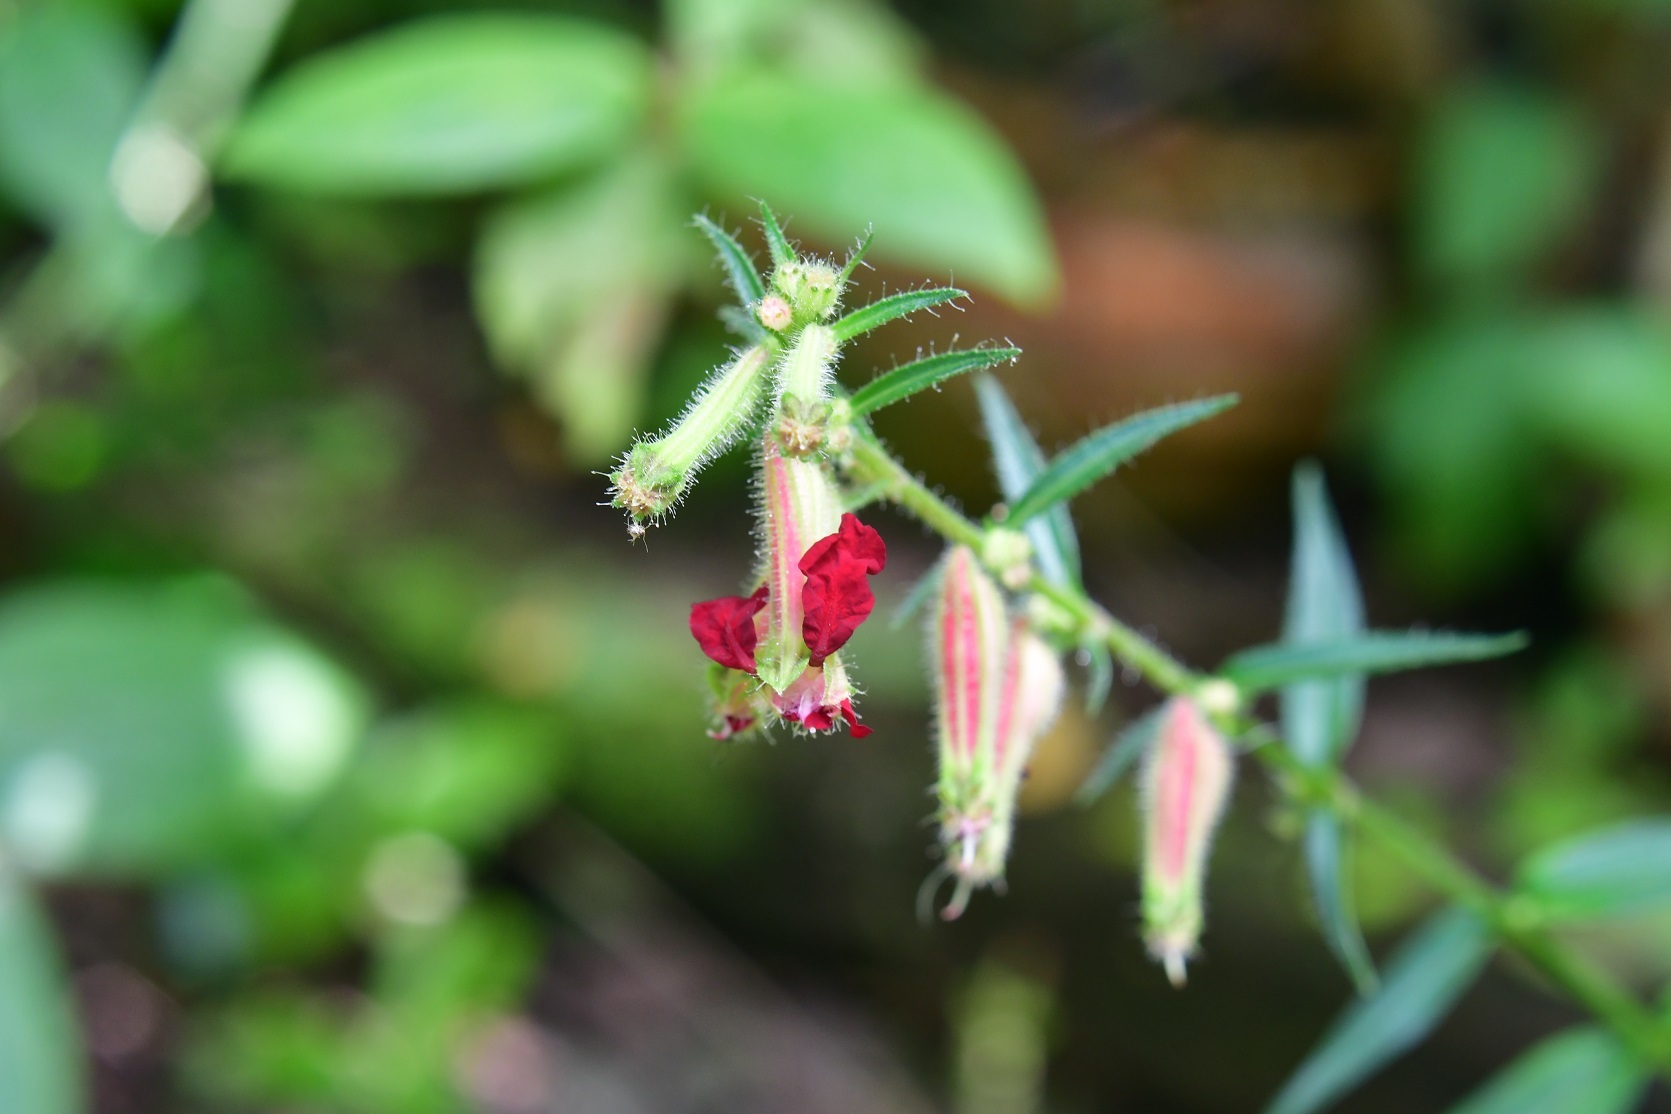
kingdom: Plantae
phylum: Tracheophyta
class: Magnoliopsida
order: Myrtales
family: Lythraceae
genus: Cuphea
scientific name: Cuphea hookeriana
